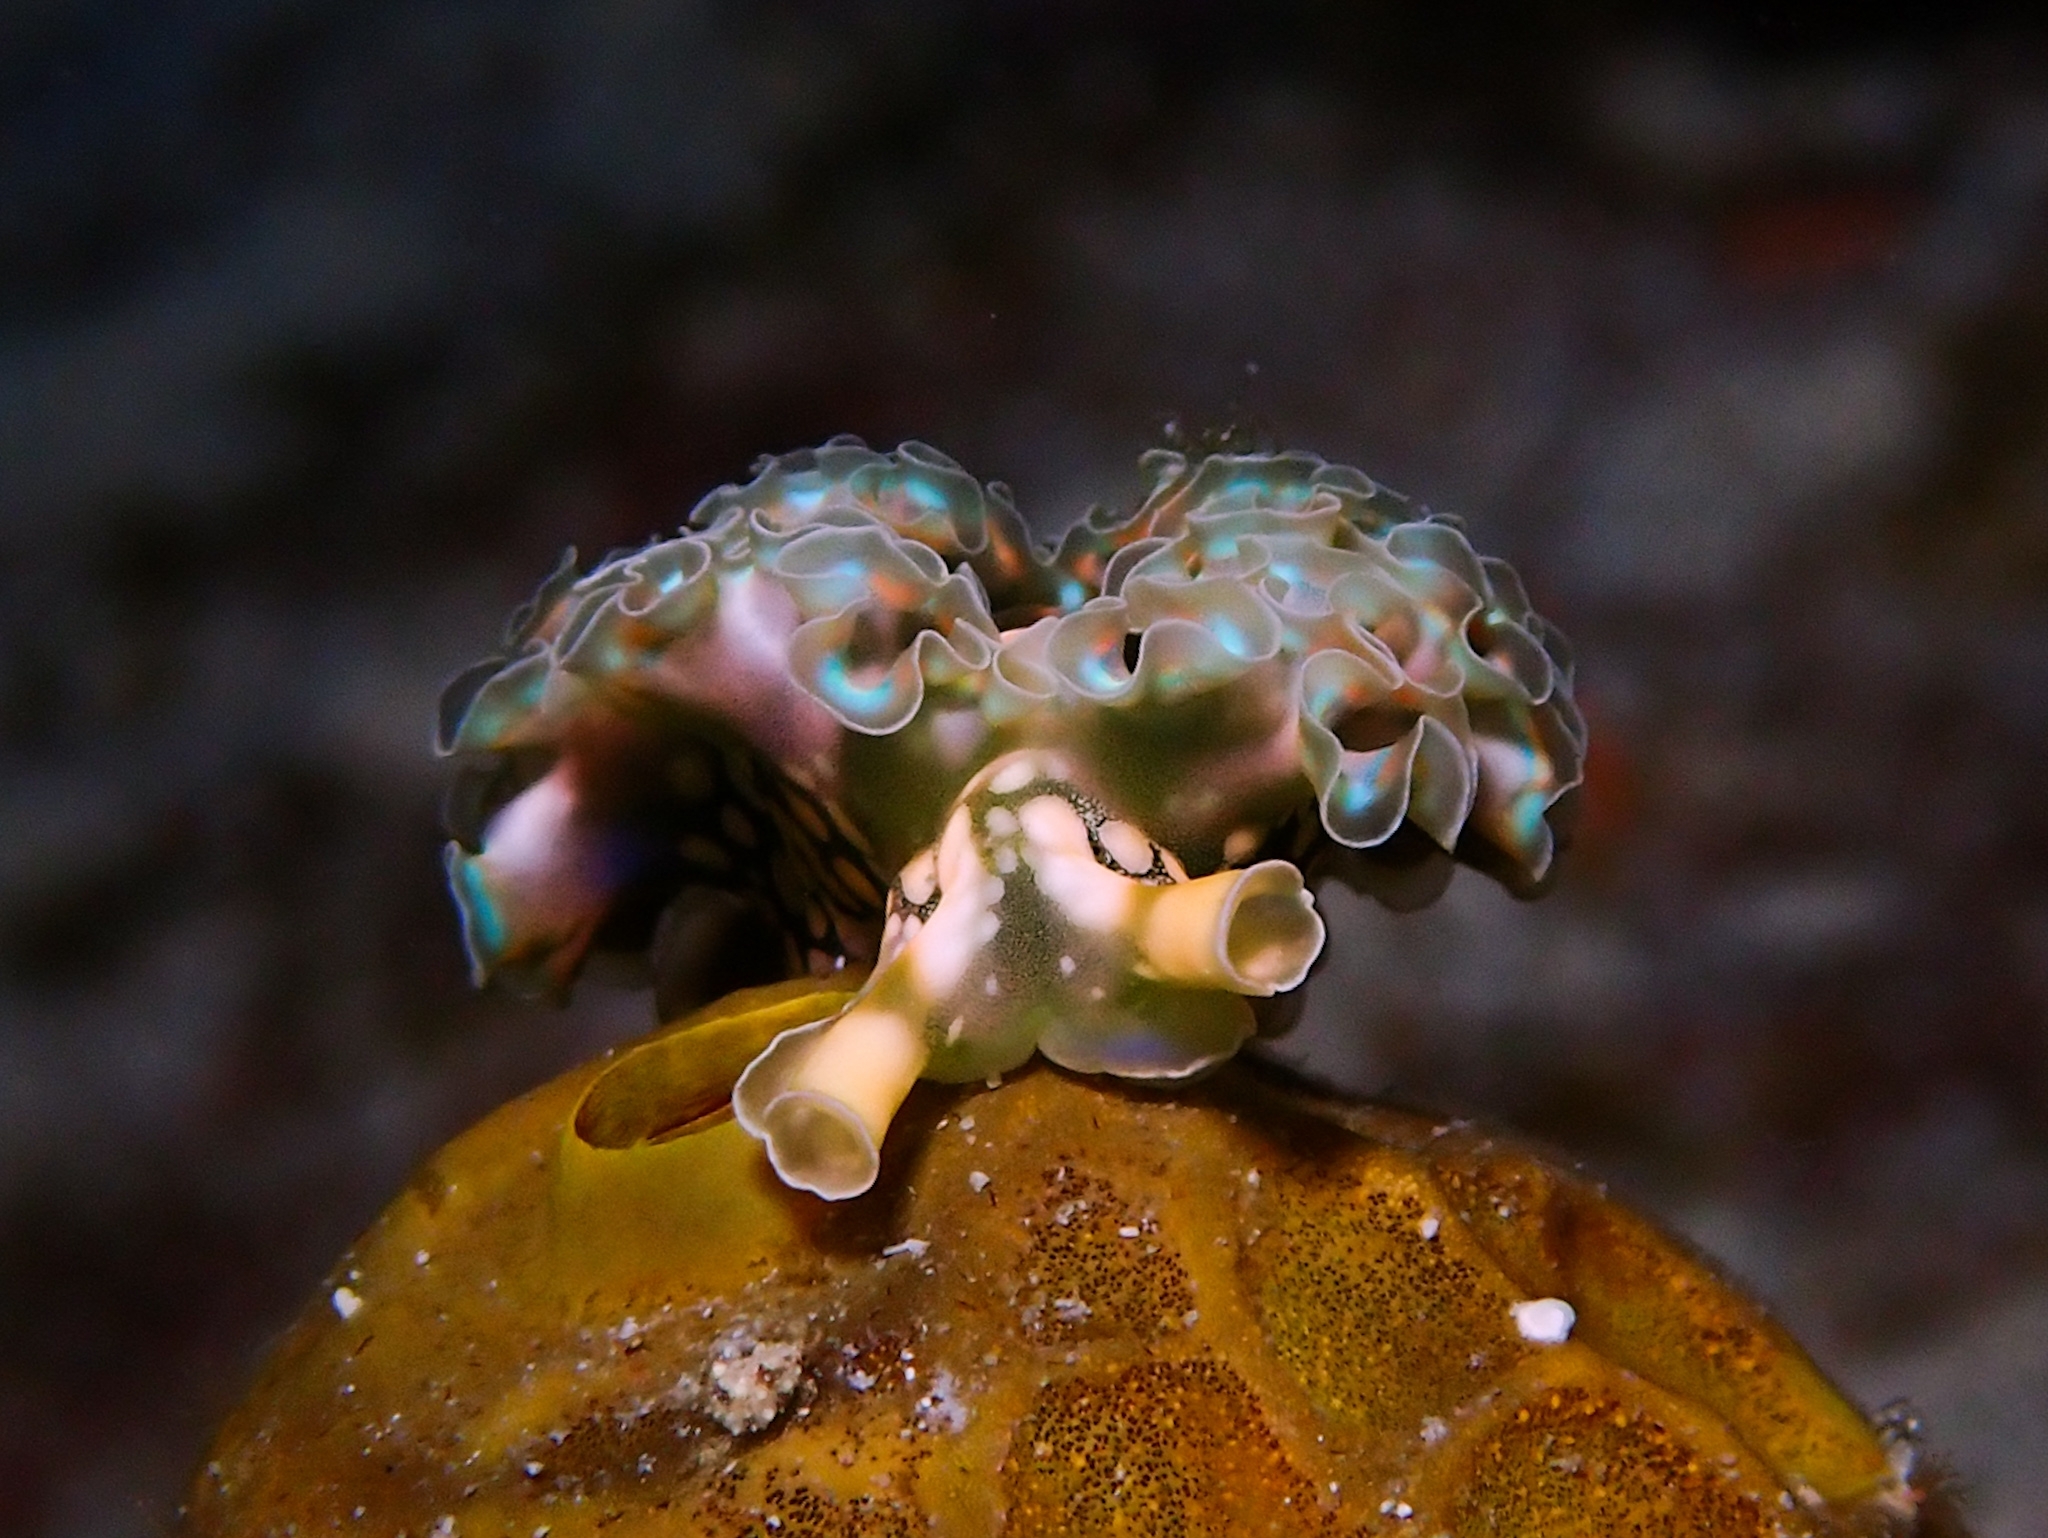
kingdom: Animalia
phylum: Mollusca
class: Gastropoda
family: Plakobranchidae
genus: Elysia
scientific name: Elysia crispata
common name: Lettuce slug
